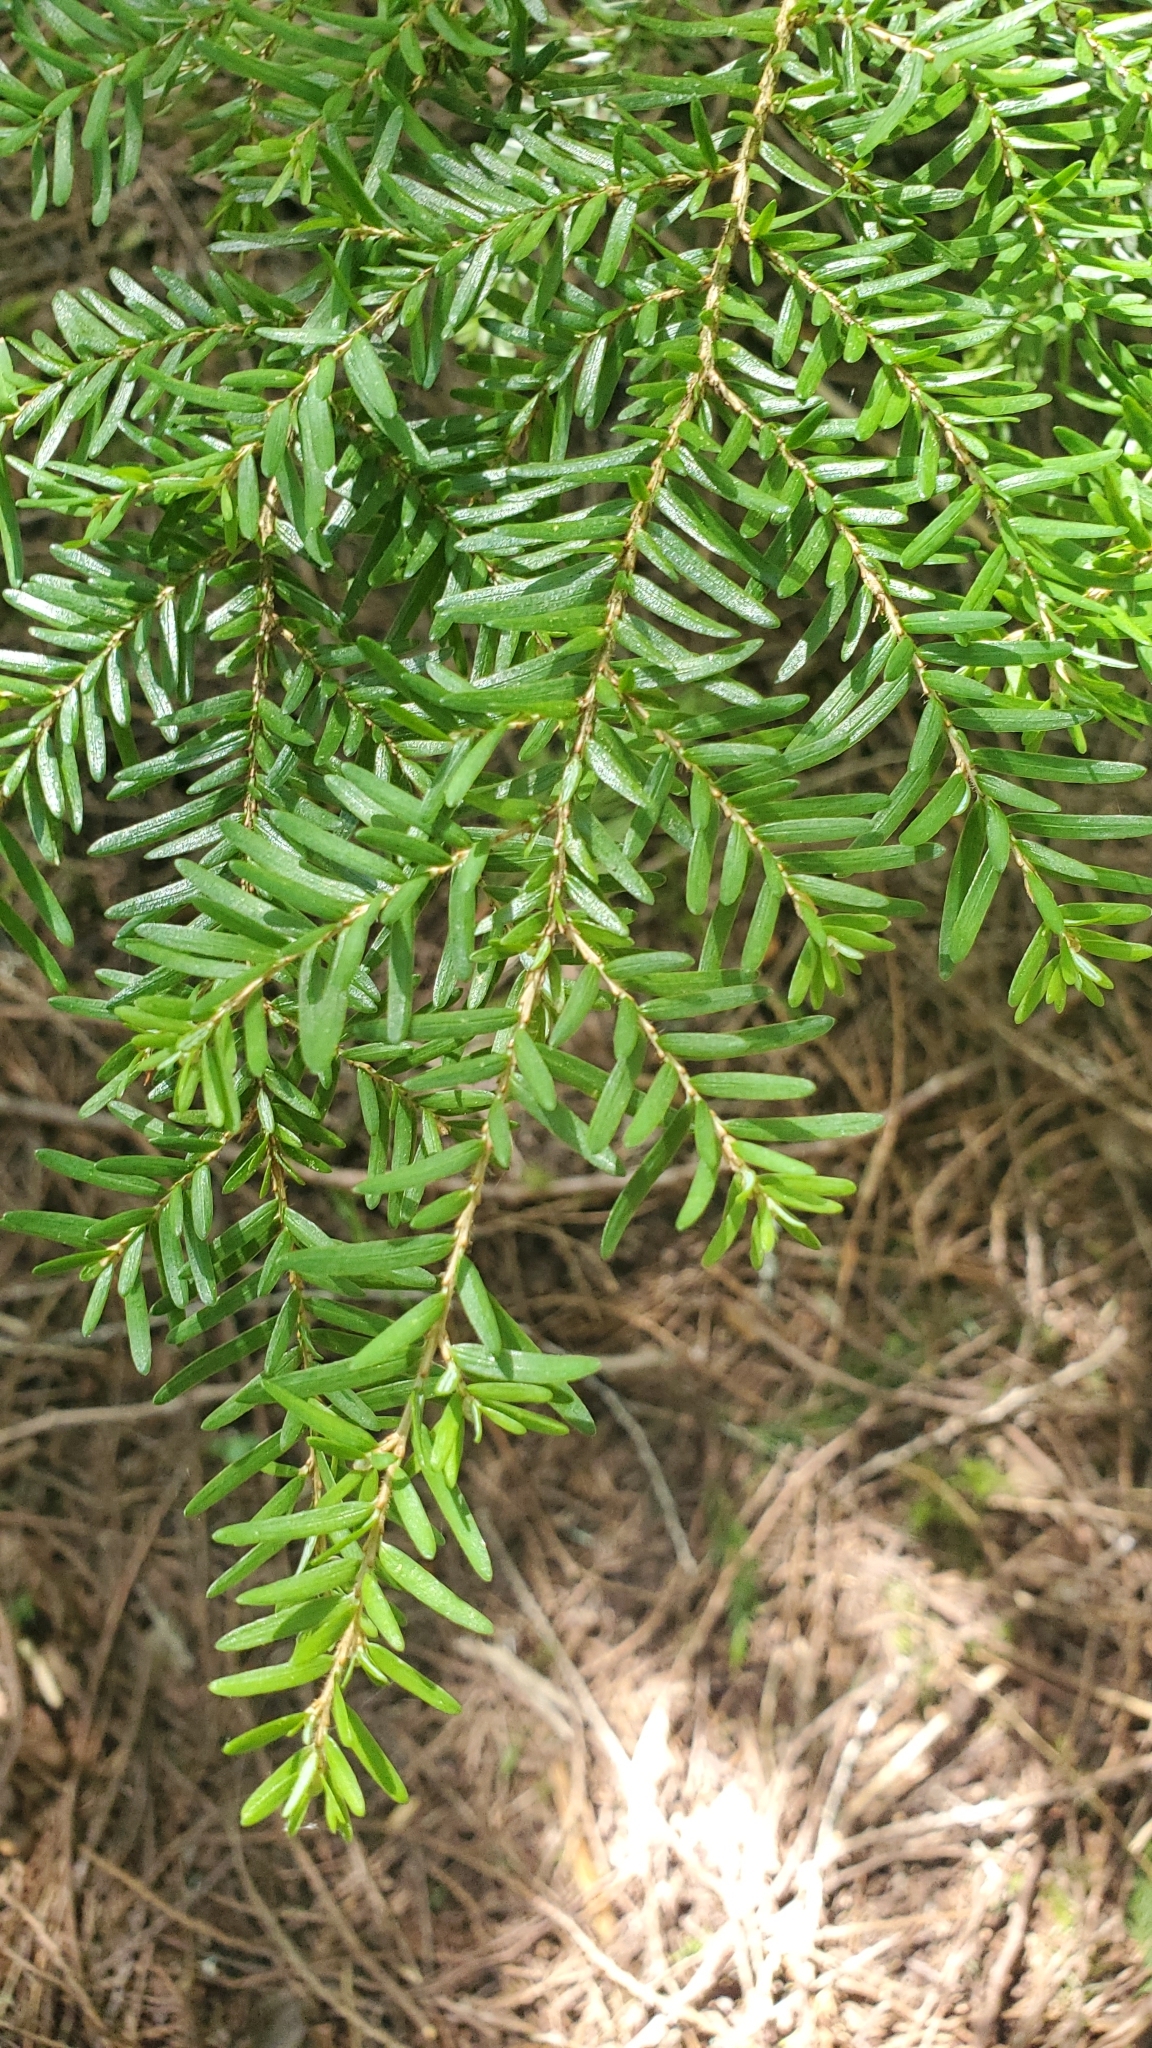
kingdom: Plantae
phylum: Tracheophyta
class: Pinopsida
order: Pinales
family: Pinaceae
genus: Tsuga
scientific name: Tsuga heterophylla
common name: Western hemlock
